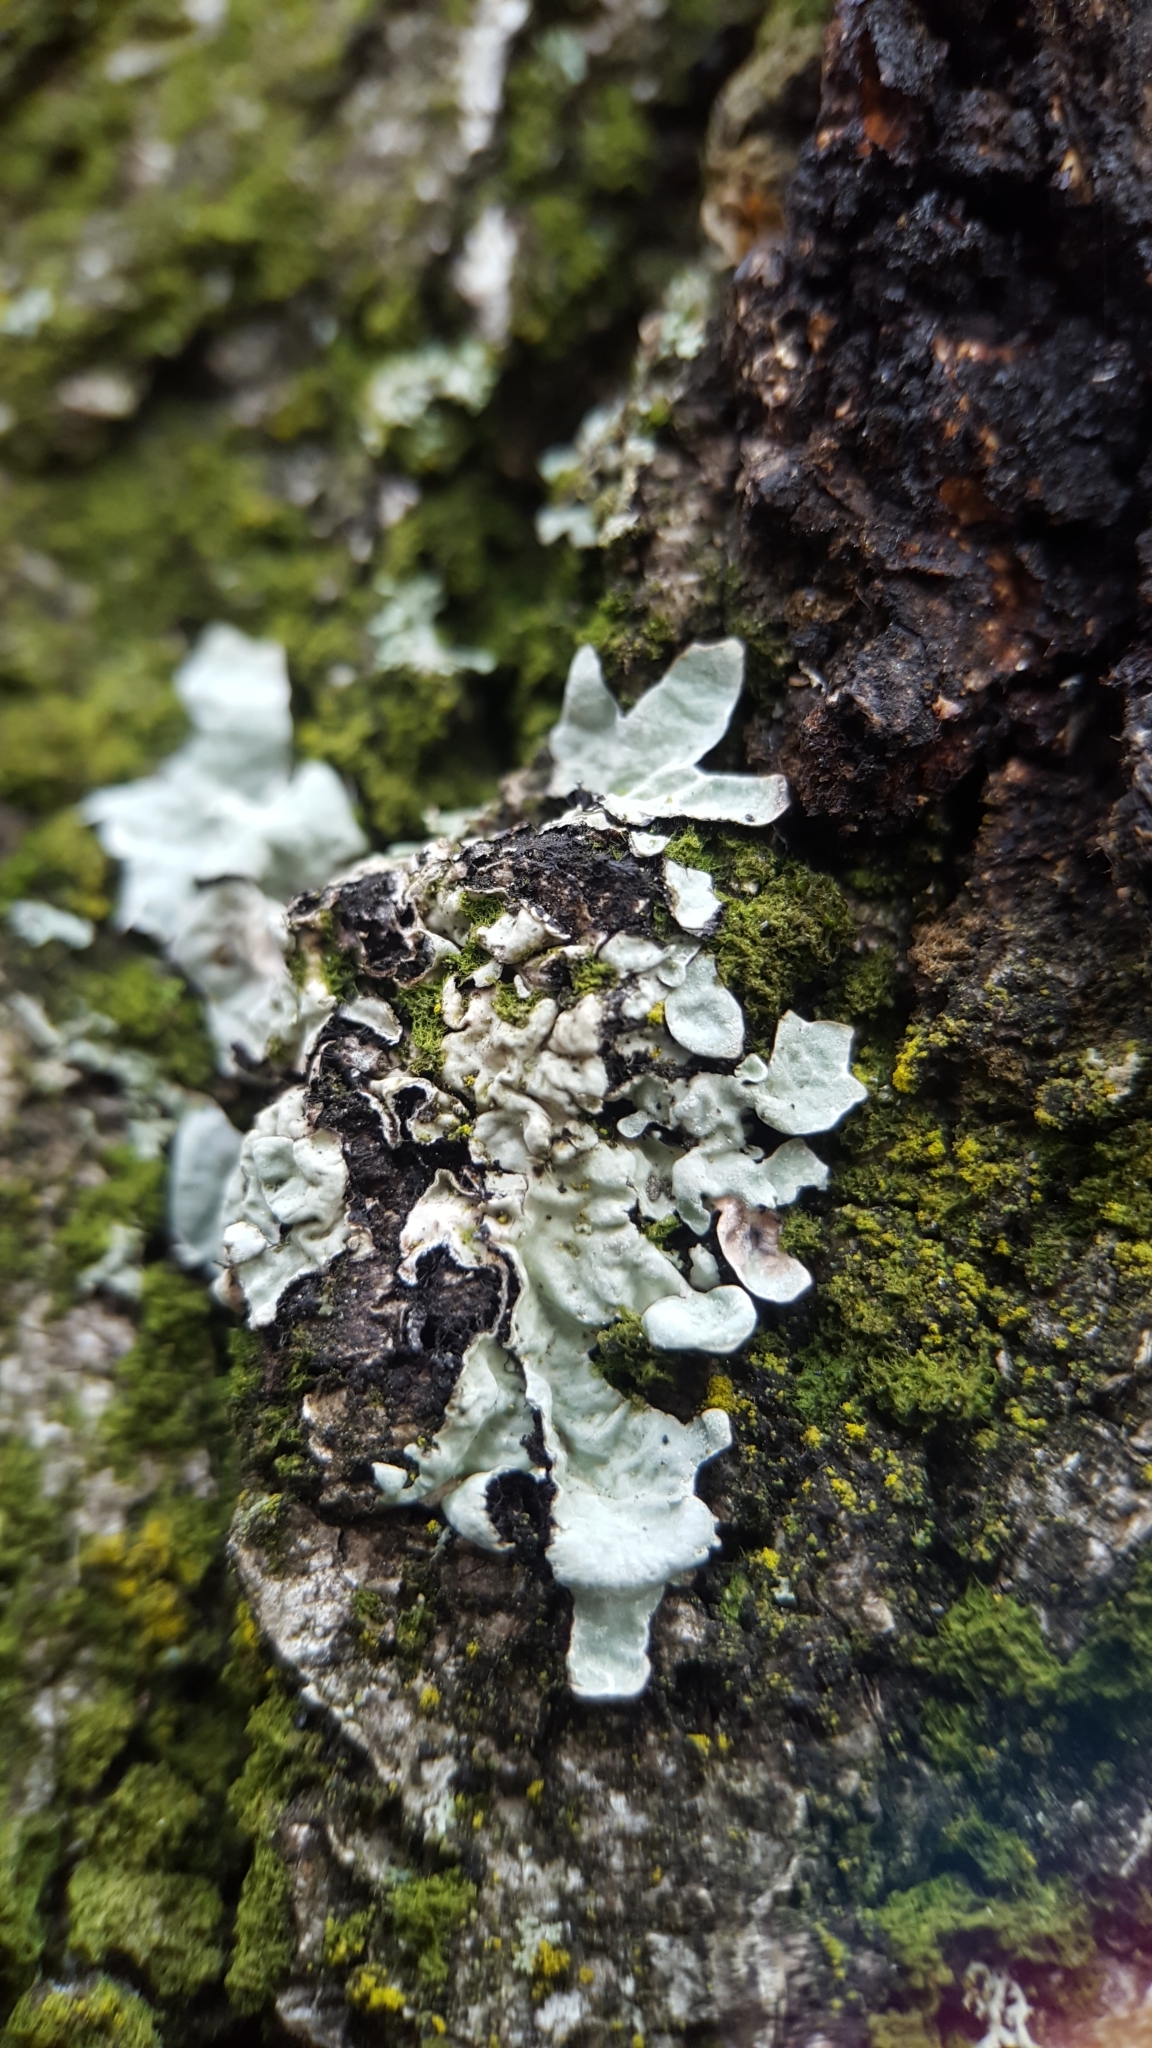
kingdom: Fungi
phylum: Ascomycota
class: Lecanoromycetes
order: Lecanorales
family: Parmeliaceae
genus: Parmelia
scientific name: Parmelia sulcata
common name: Netted shield lichen
